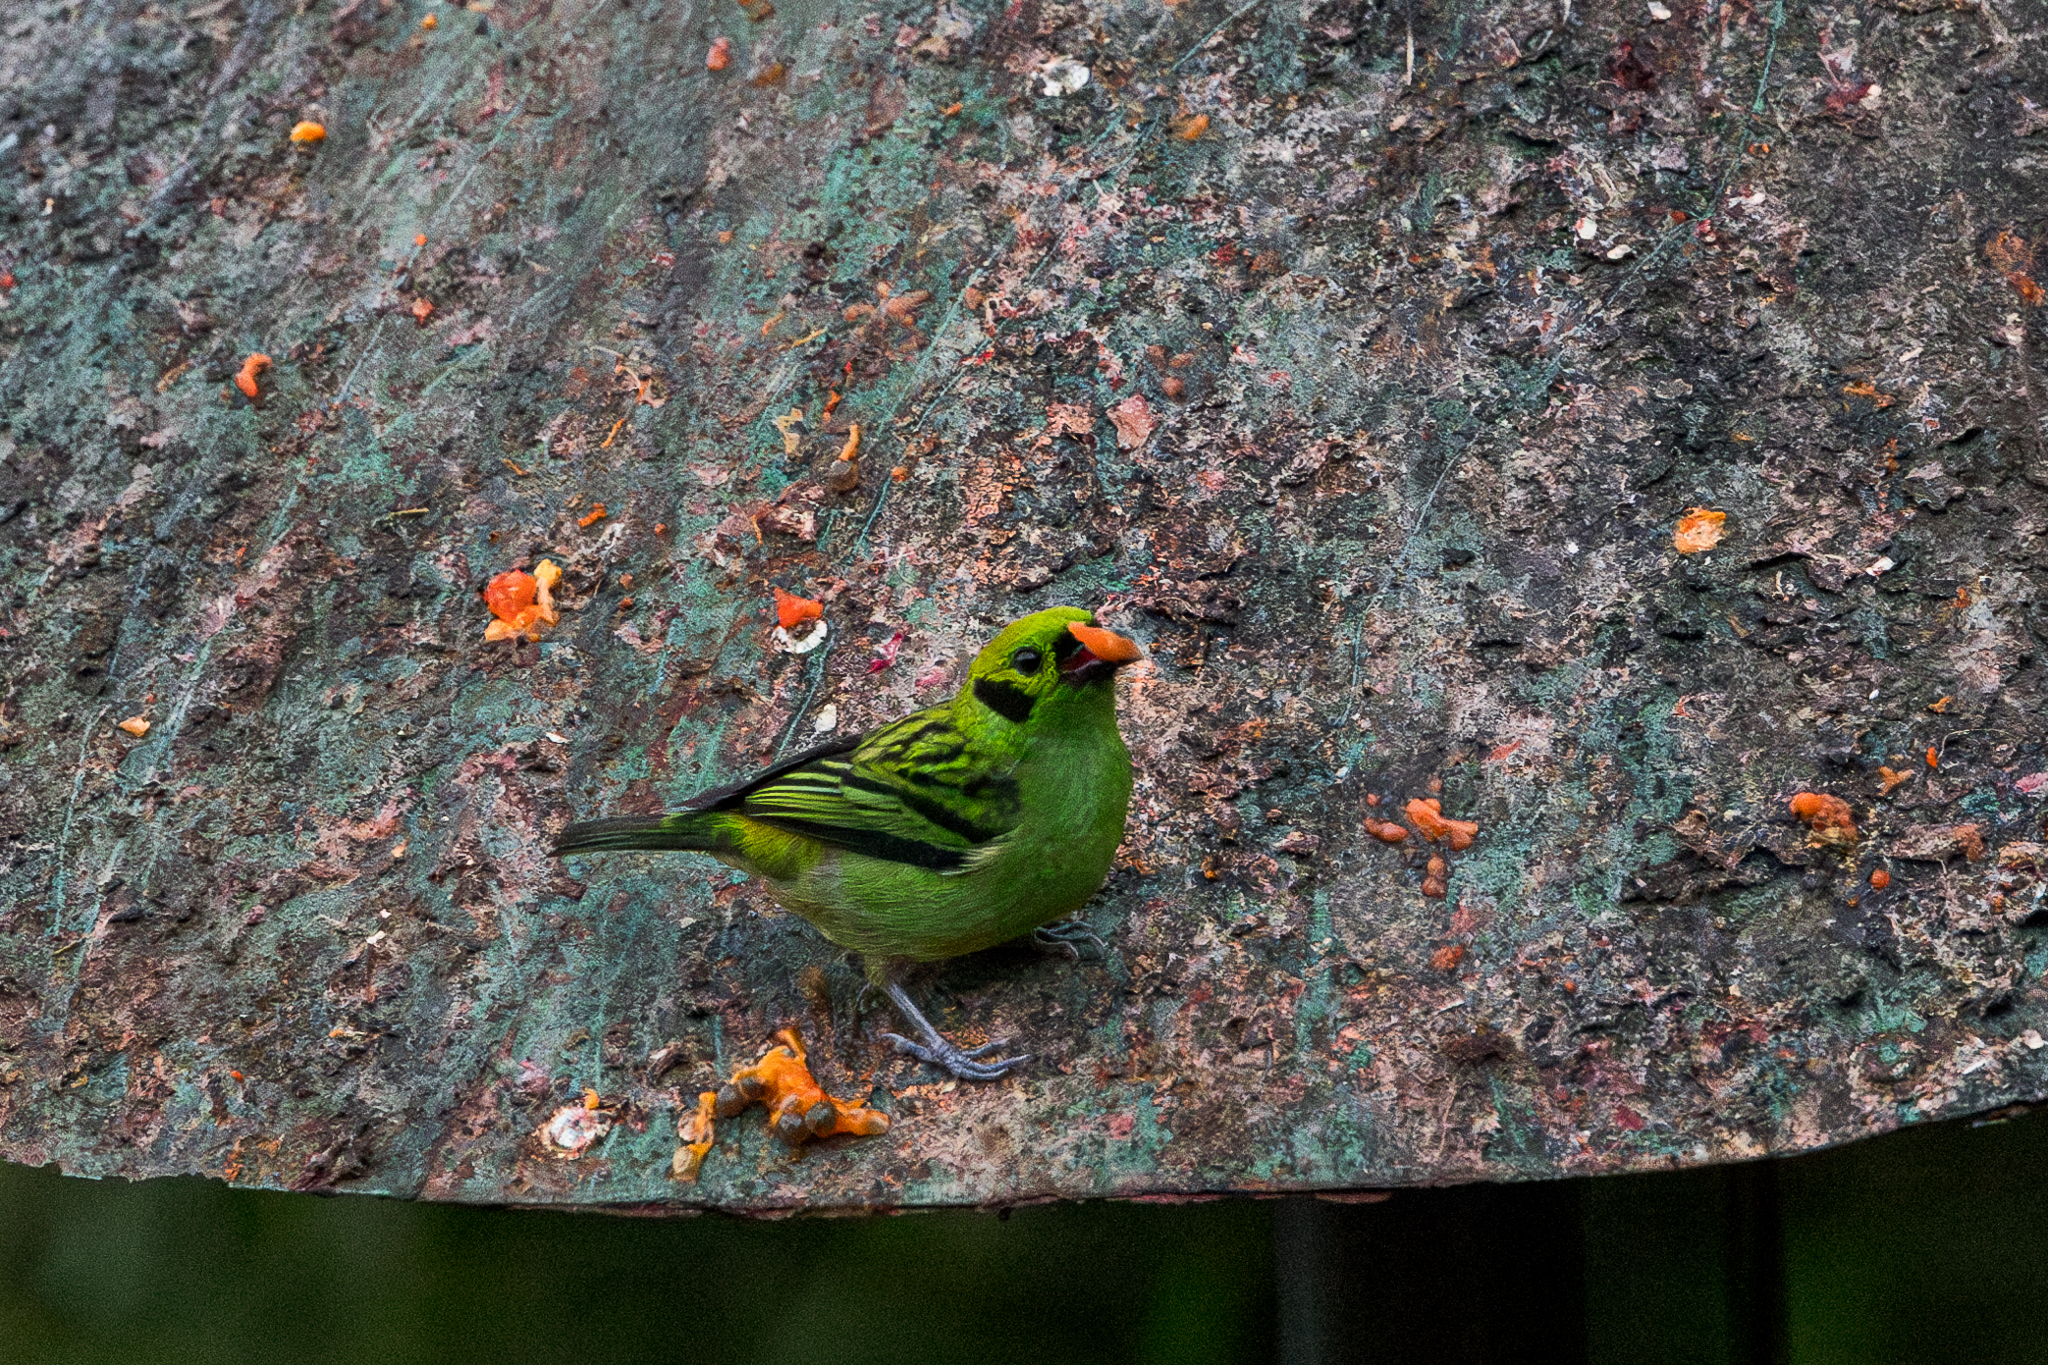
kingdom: Animalia
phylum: Chordata
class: Aves
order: Passeriformes
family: Thraupidae
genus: Tangara
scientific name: Tangara florida
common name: Emerald tanager
